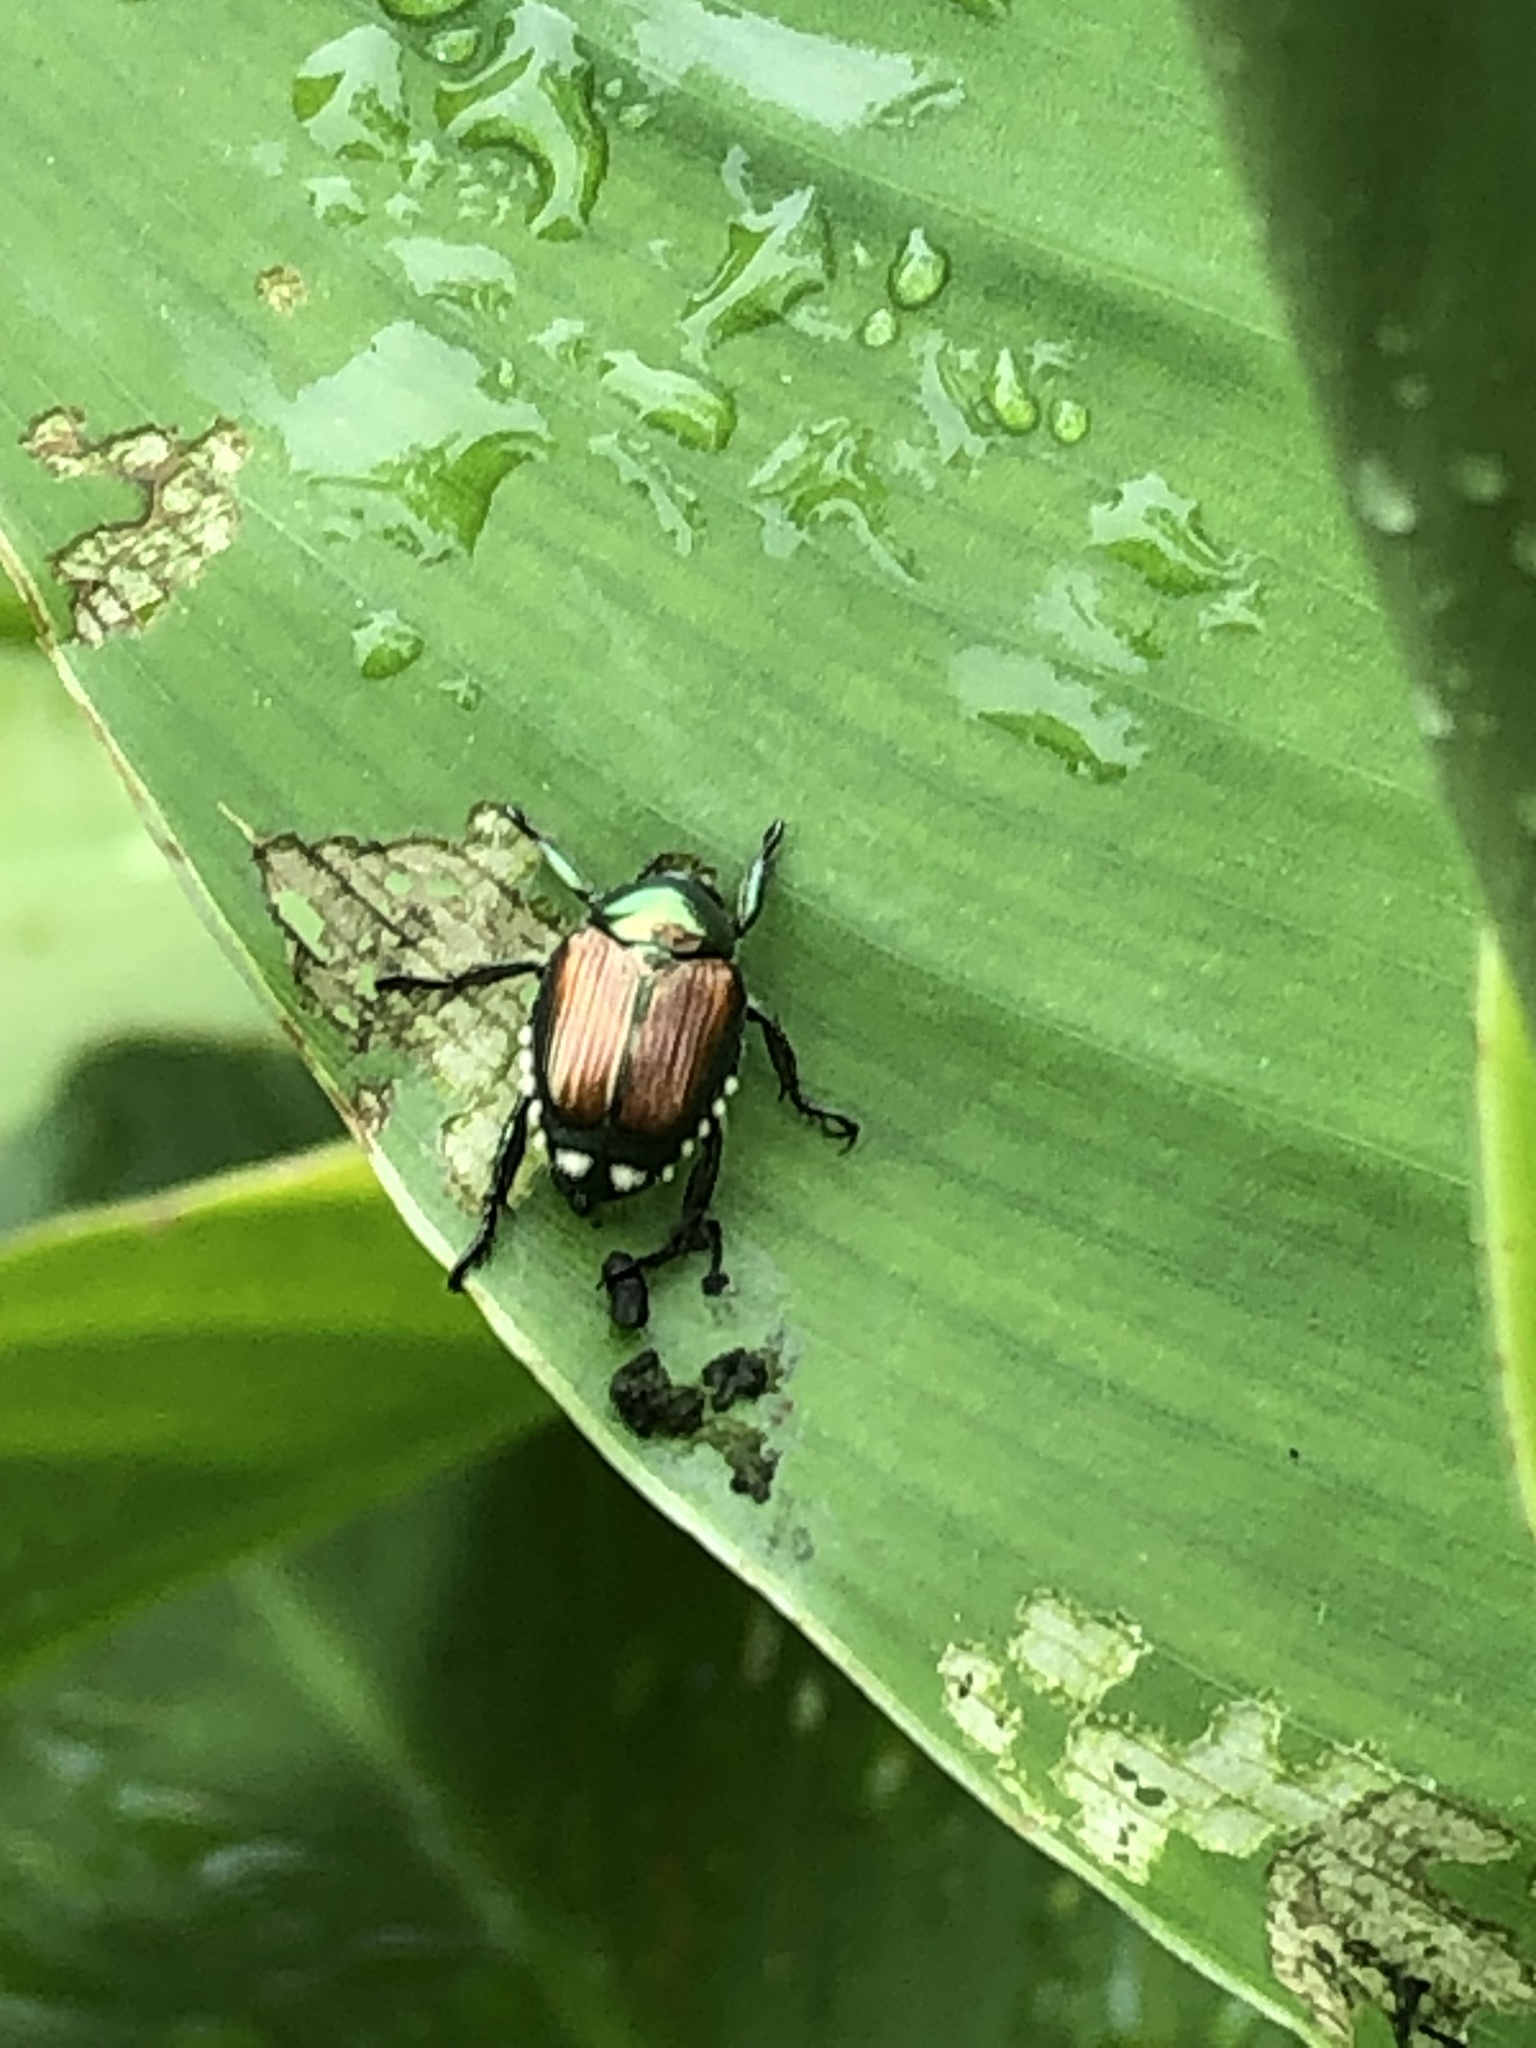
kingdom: Animalia
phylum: Arthropoda
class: Insecta
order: Coleoptera
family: Scarabaeidae
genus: Popillia
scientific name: Popillia japonica
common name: Japanese beetle
